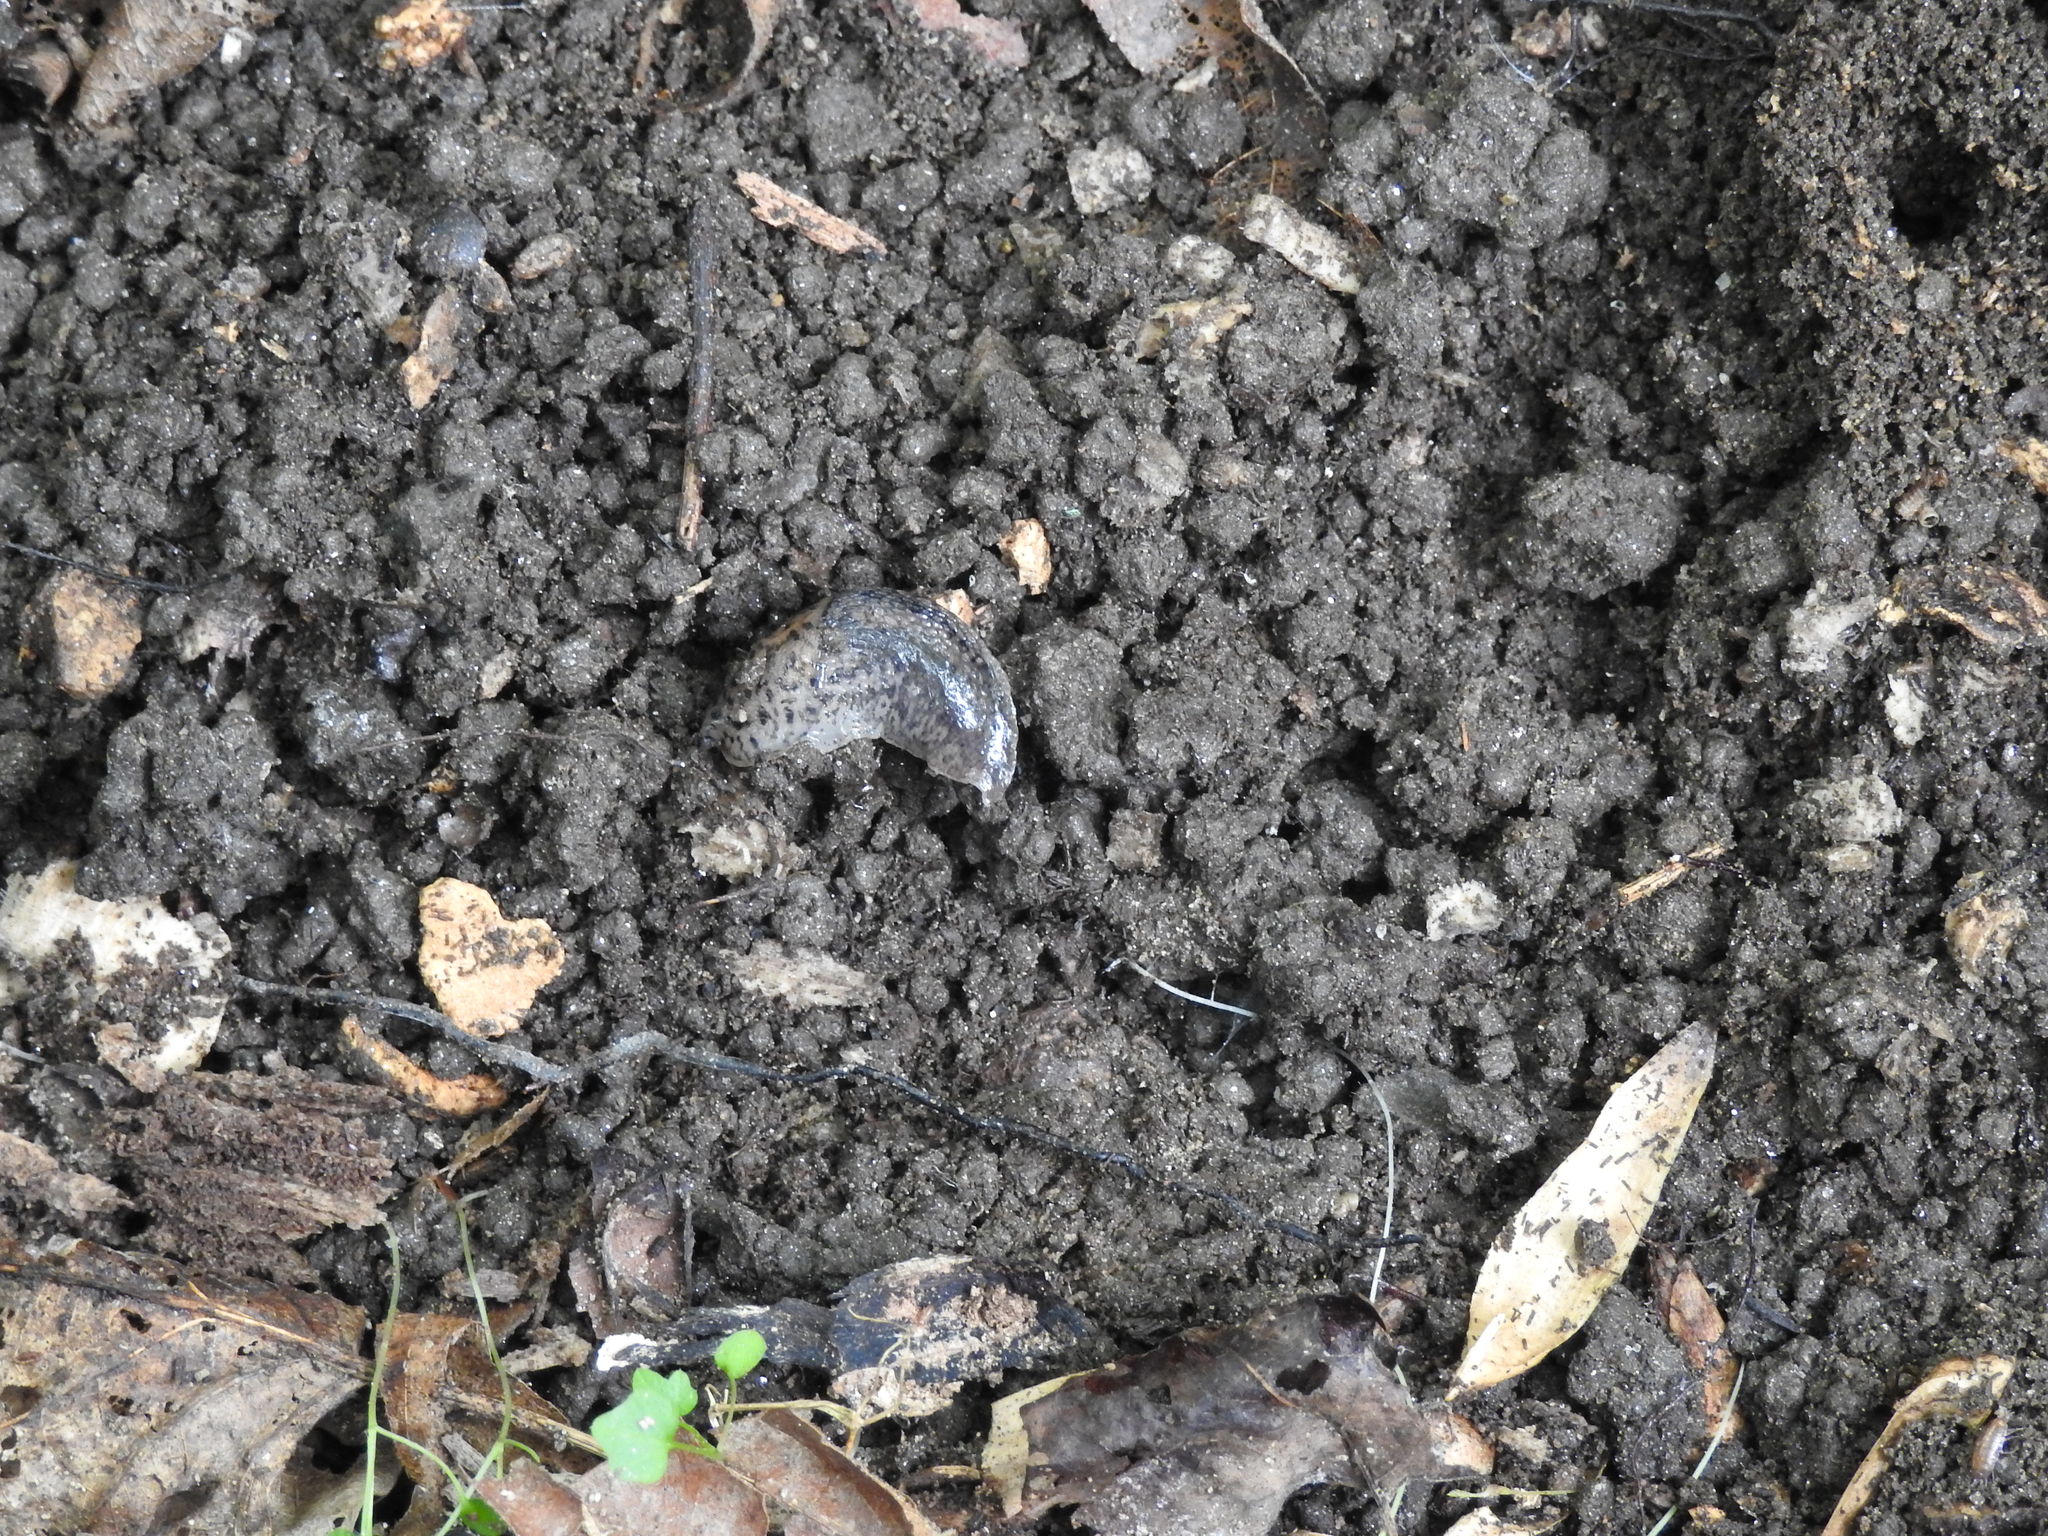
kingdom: Animalia
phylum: Mollusca
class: Gastropoda
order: Stylommatophora
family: Limacidae
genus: Limax
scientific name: Limax maximus
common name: Great grey slug
